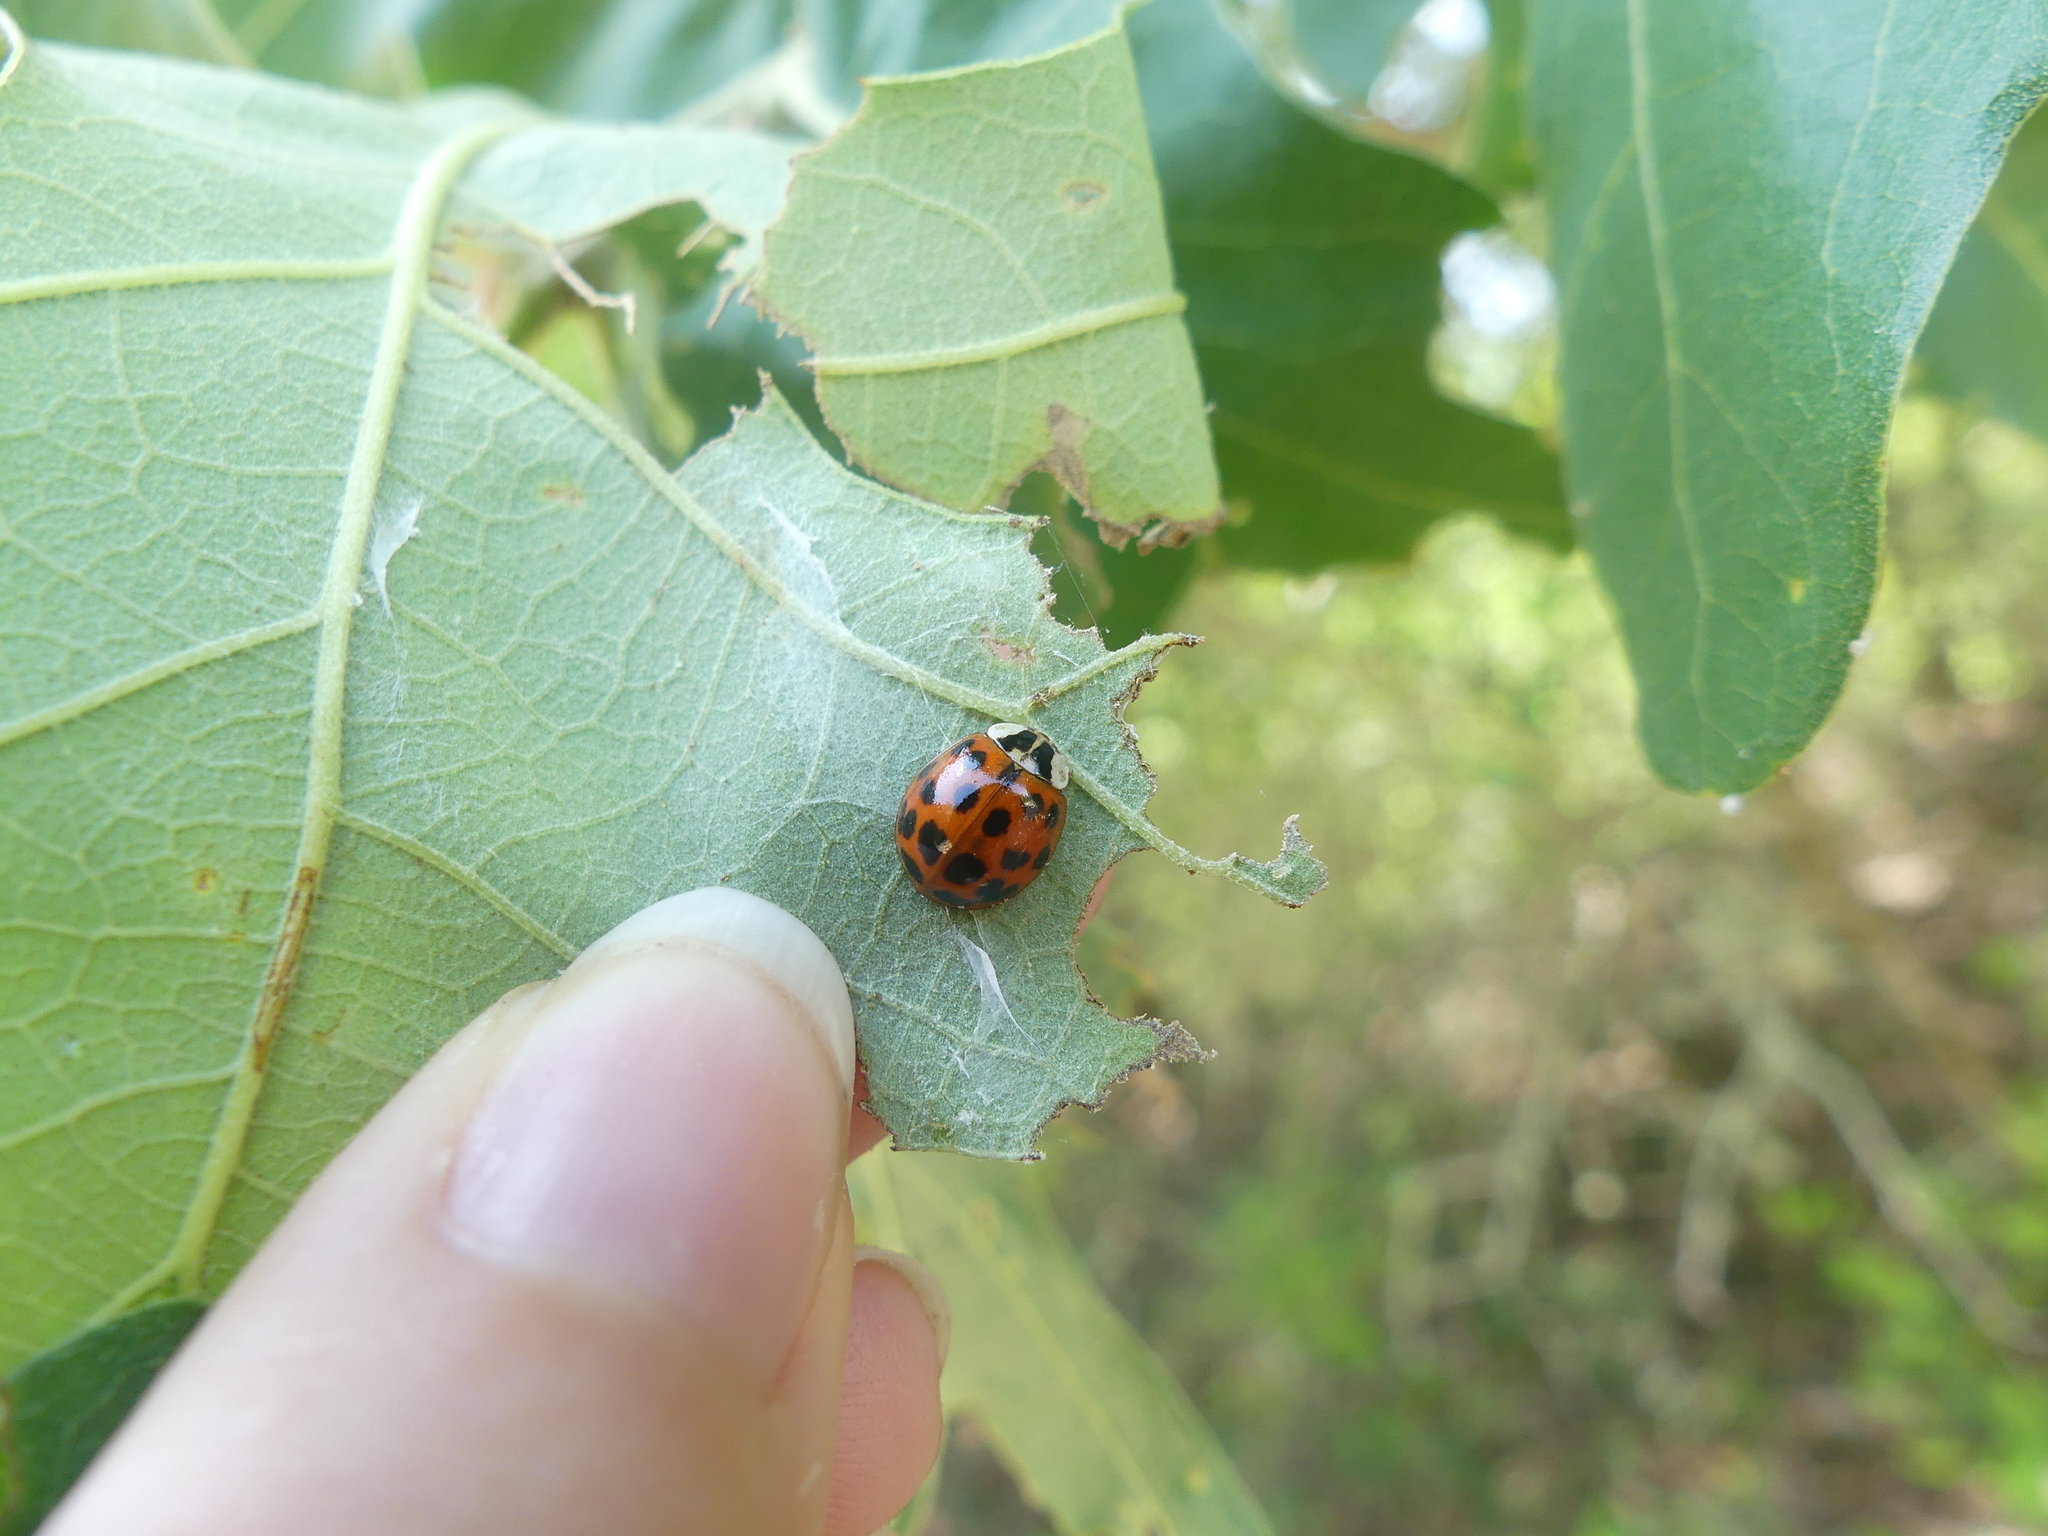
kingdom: Animalia
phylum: Arthropoda
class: Insecta
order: Coleoptera
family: Coccinellidae
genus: Harmonia
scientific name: Harmonia axyridis
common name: Harlequin ladybird
